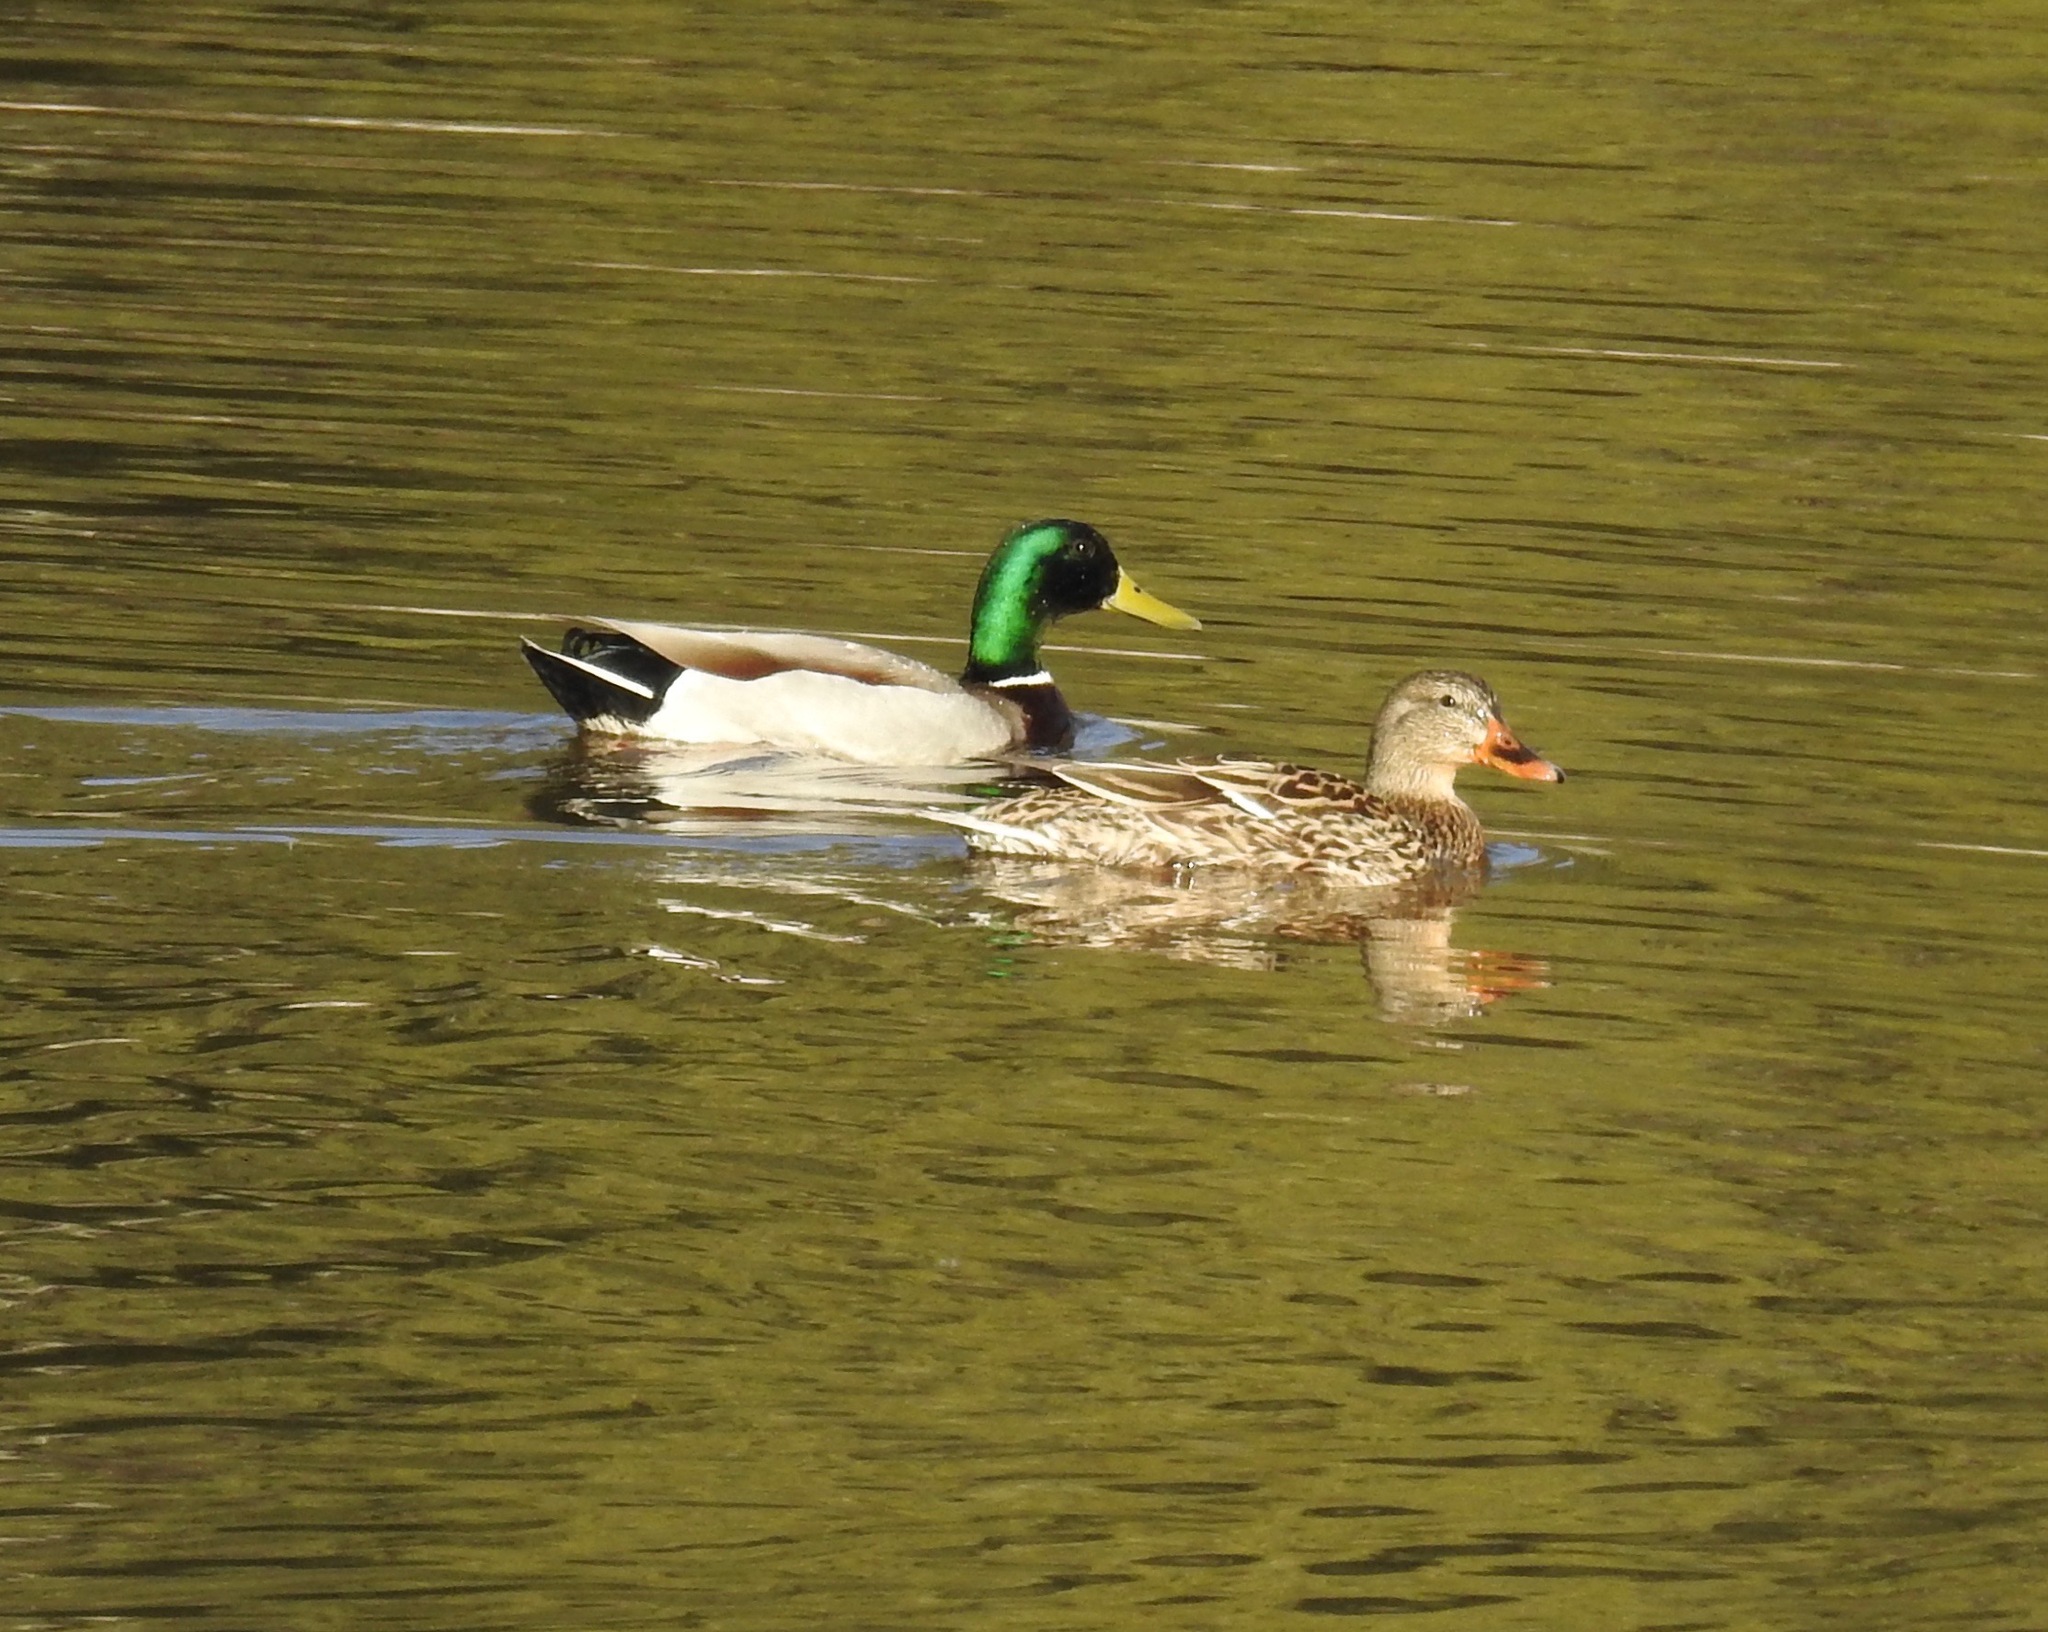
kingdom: Animalia
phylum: Chordata
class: Aves
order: Anseriformes
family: Anatidae
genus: Anas
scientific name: Anas platyrhynchos
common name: Mallard
